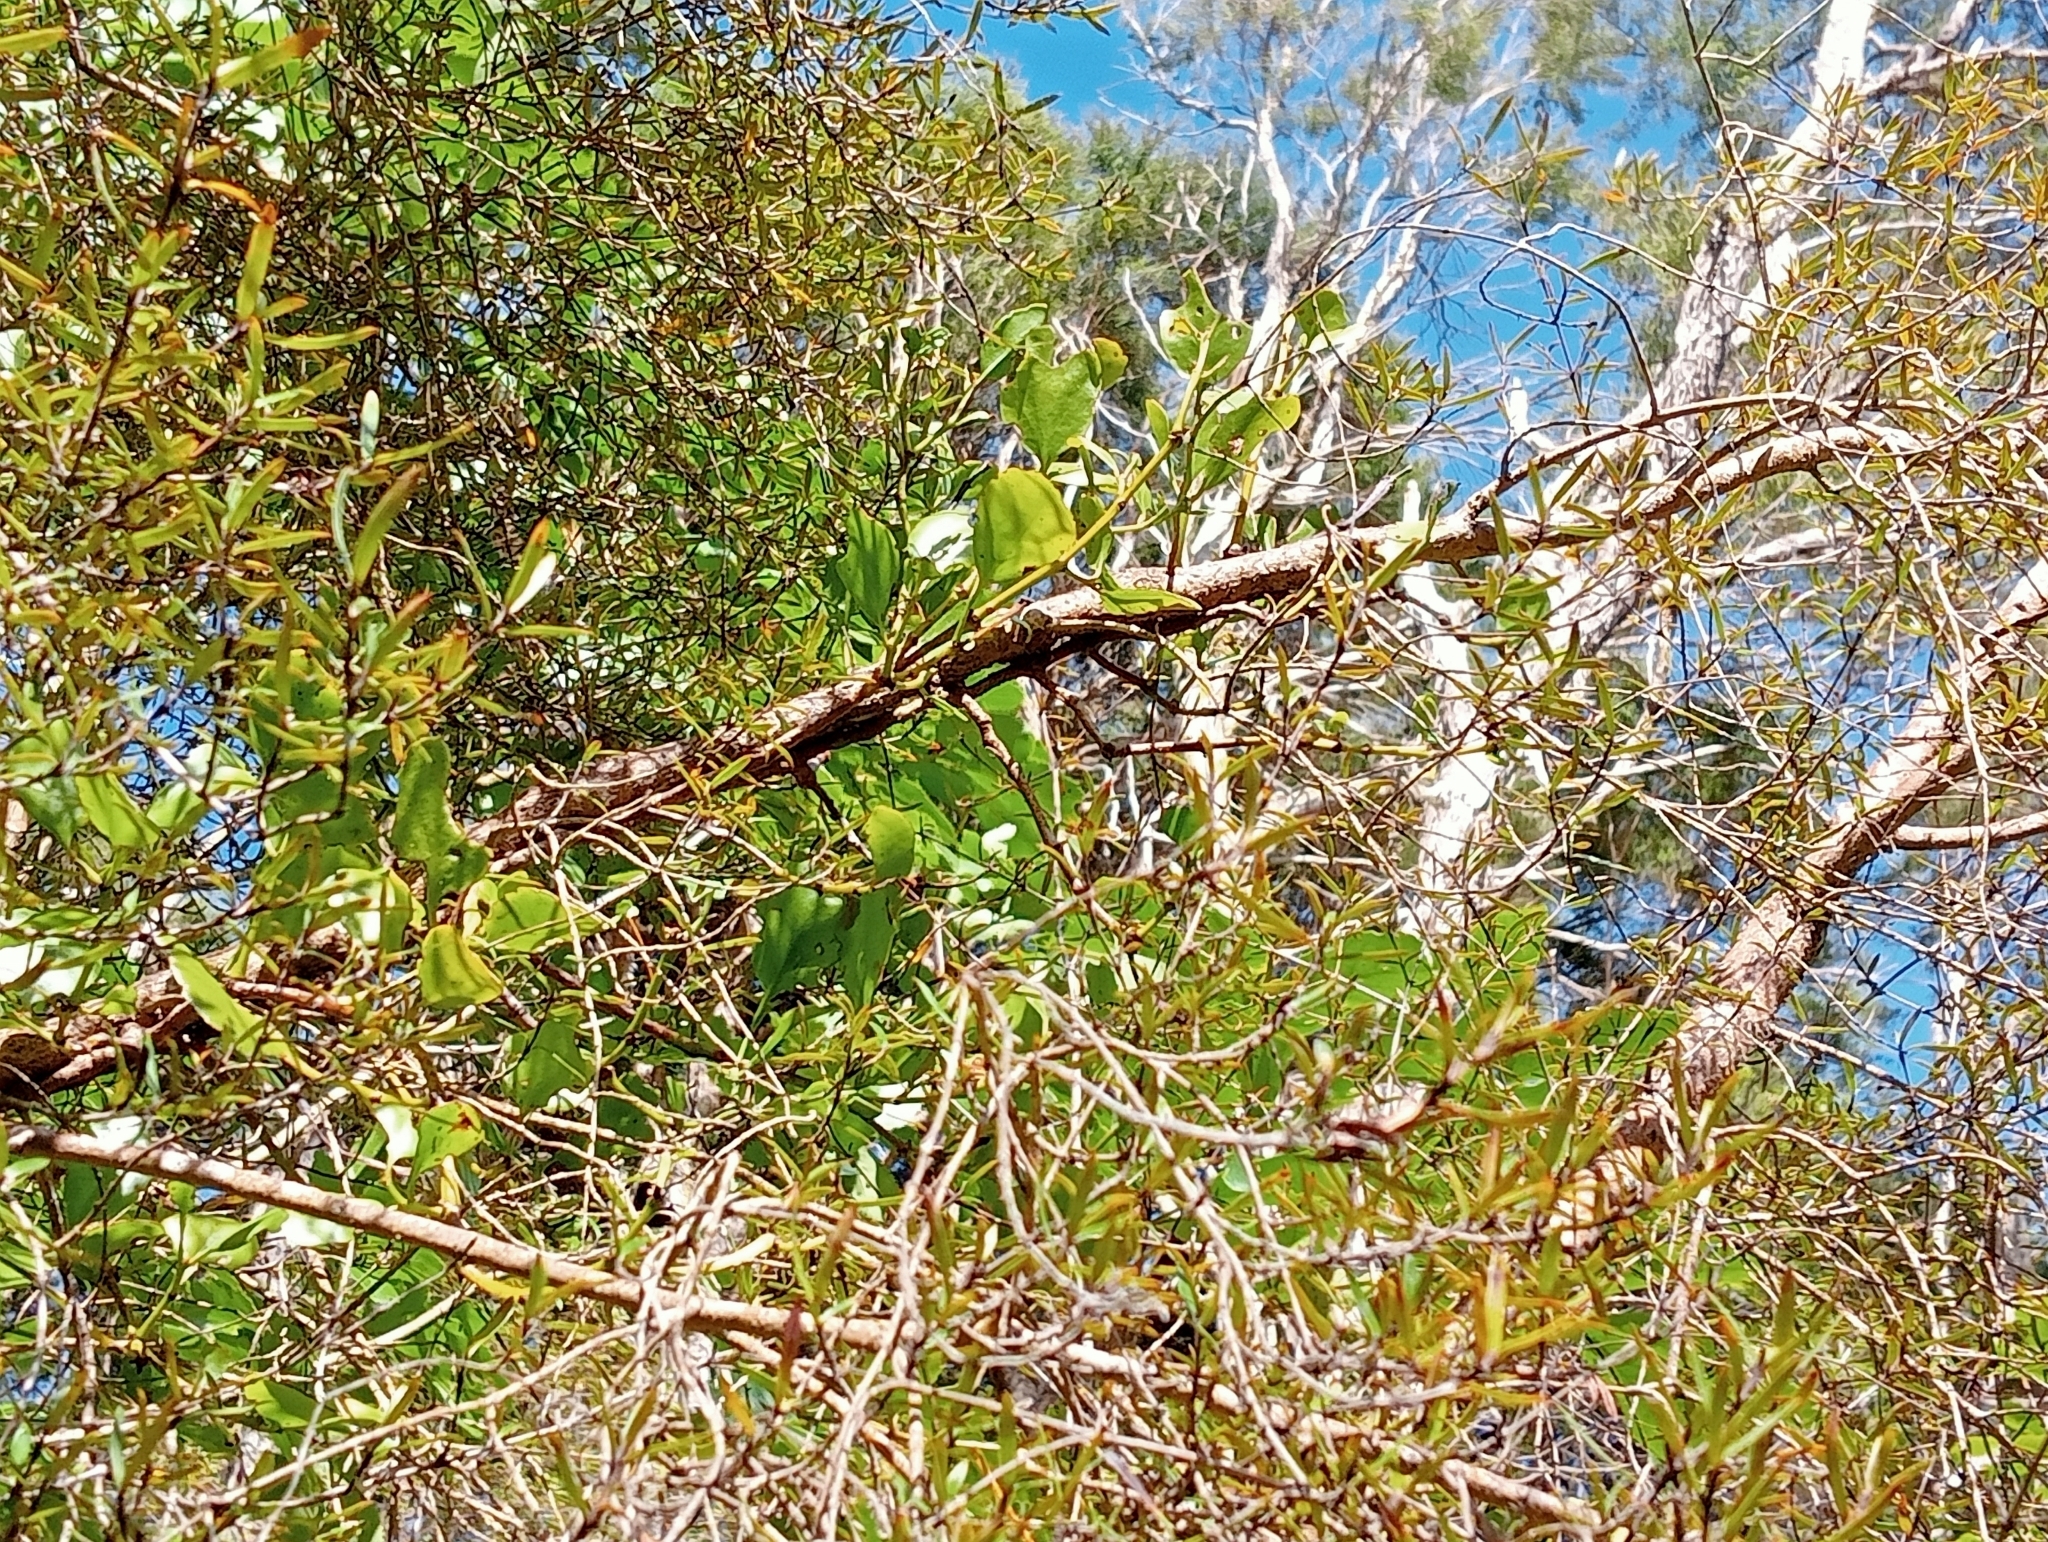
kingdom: Plantae
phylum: Tracheophyta
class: Magnoliopsida
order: Santalales
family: Loranthaceae
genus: Ileostylus
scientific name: Ileostylus micranthus
